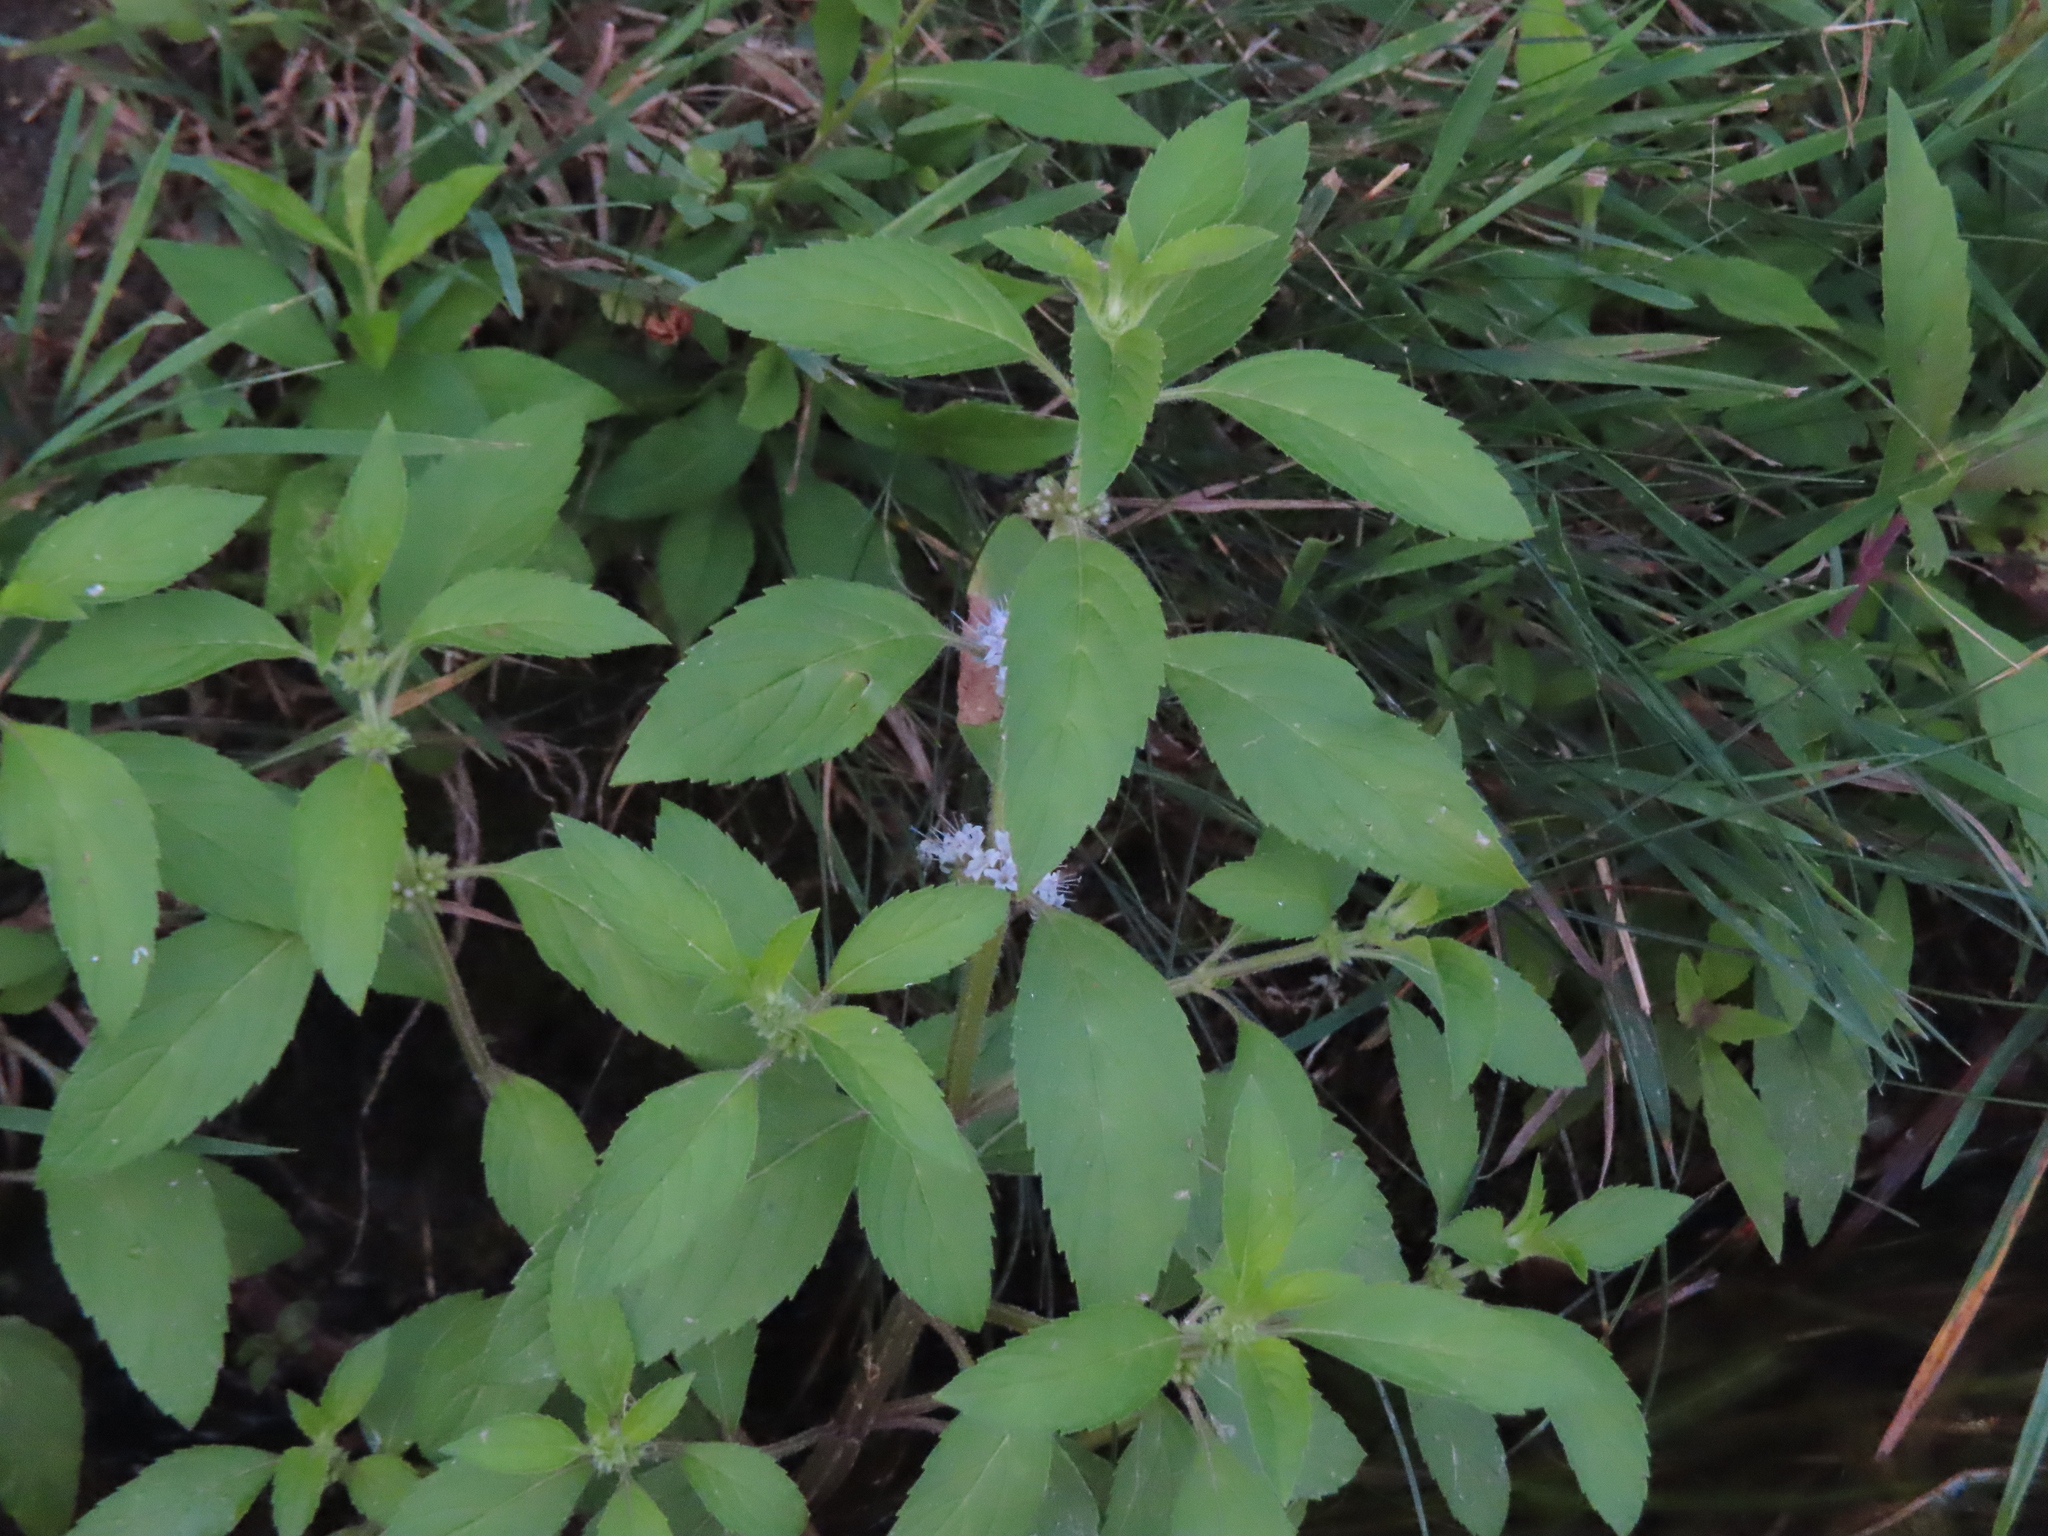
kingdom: Plantae
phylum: Tracheophyta
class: Magnoliopsida
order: Lamiales
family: Lamiaceae
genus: Mentha
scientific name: Mentha canadensis
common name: American corn mint
